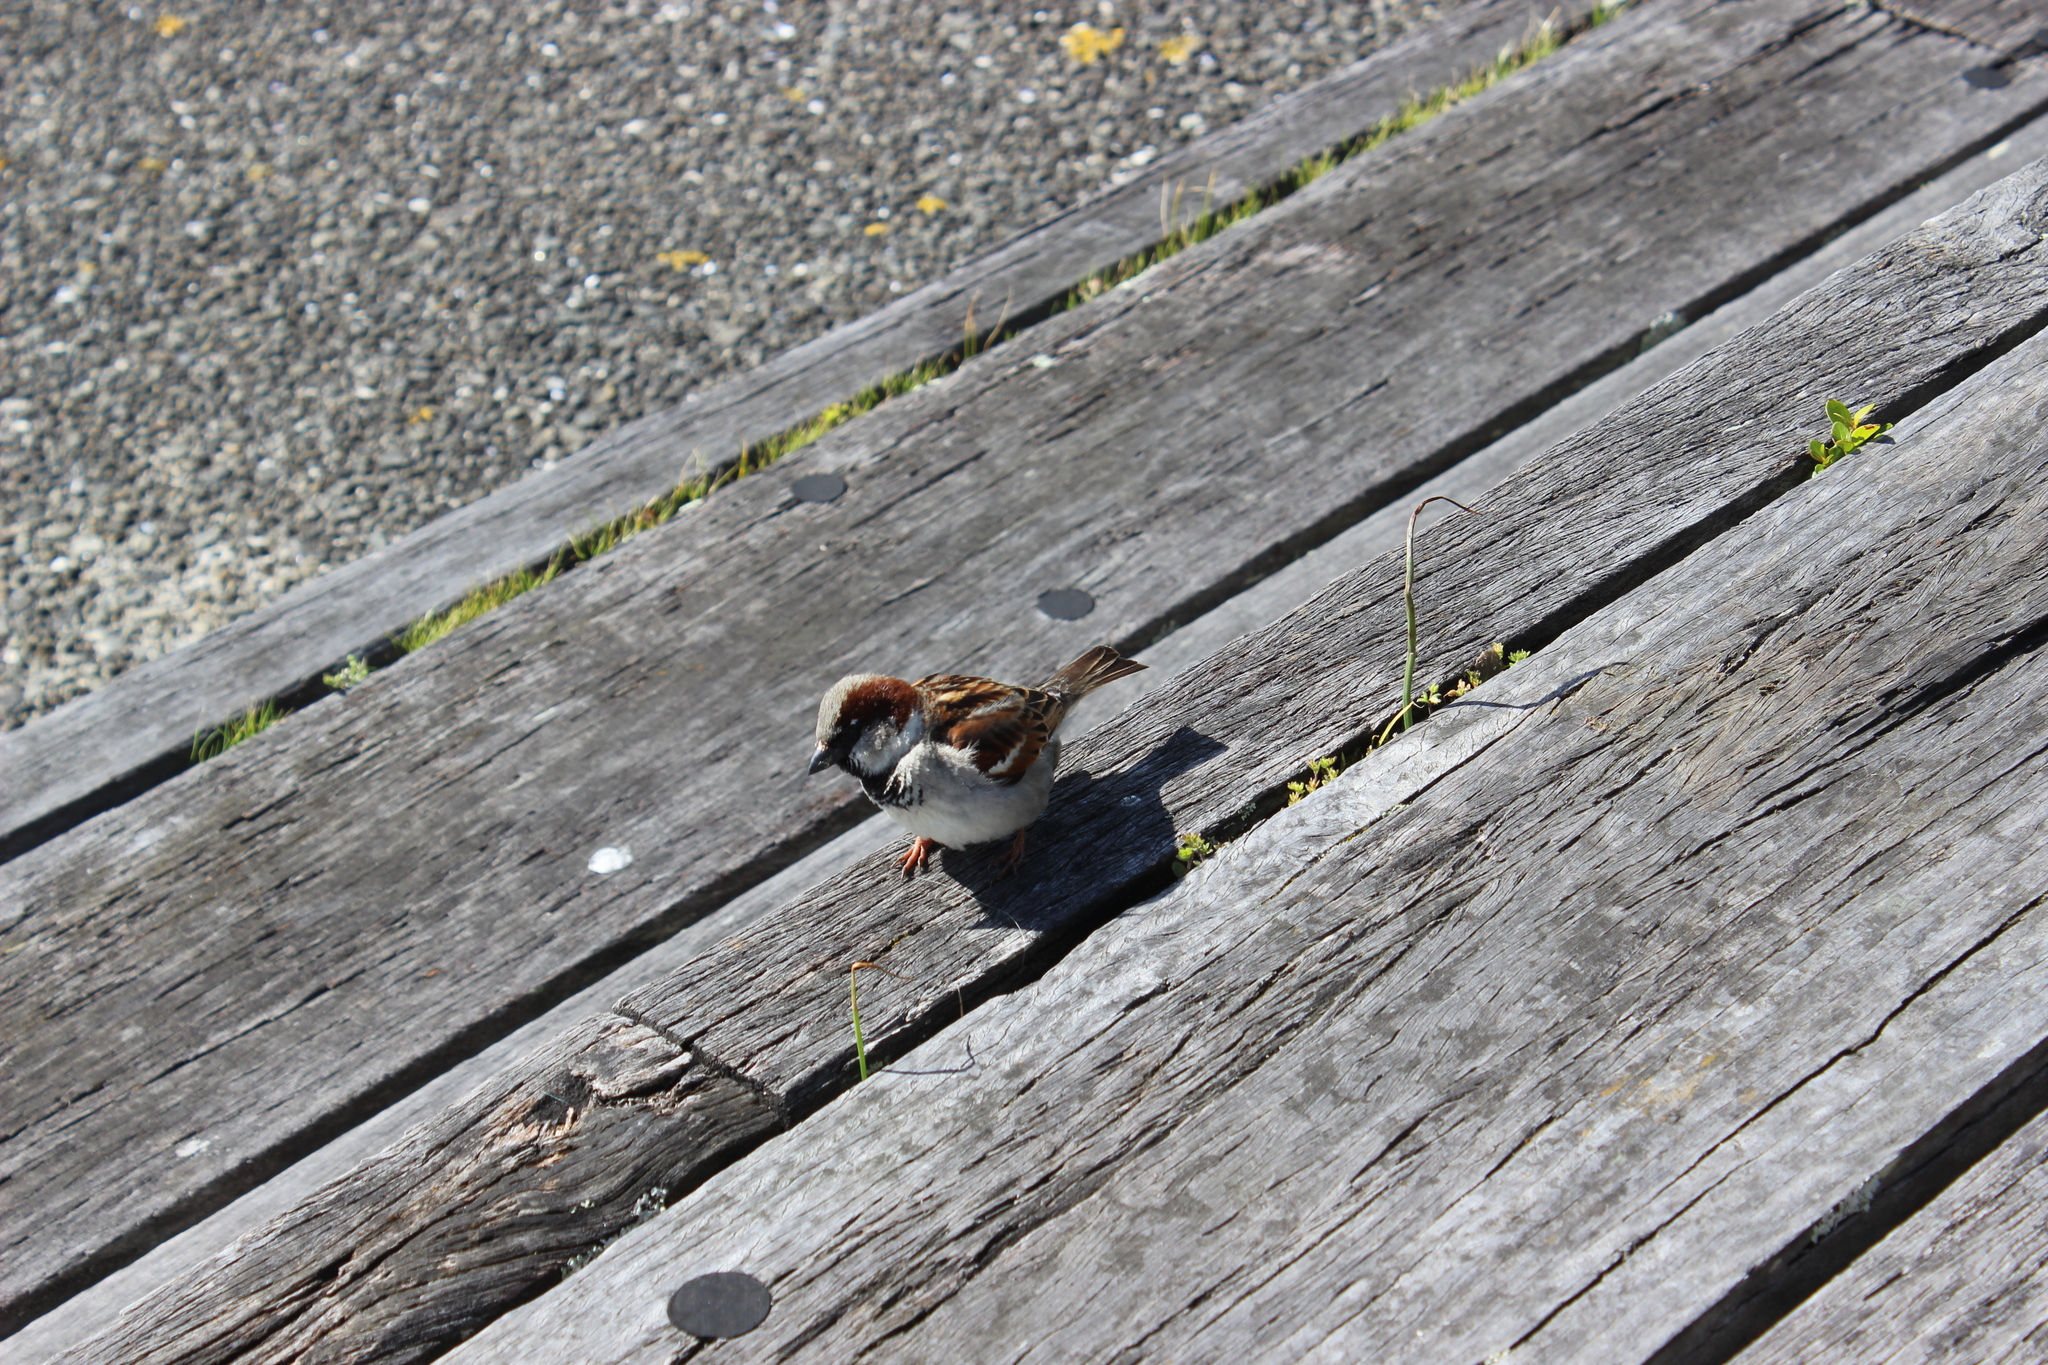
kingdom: Animalia
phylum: Chordata
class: Aves
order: Passeriformes
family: Passeridae
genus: Passer
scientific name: Passer domesticus
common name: House sparrow
